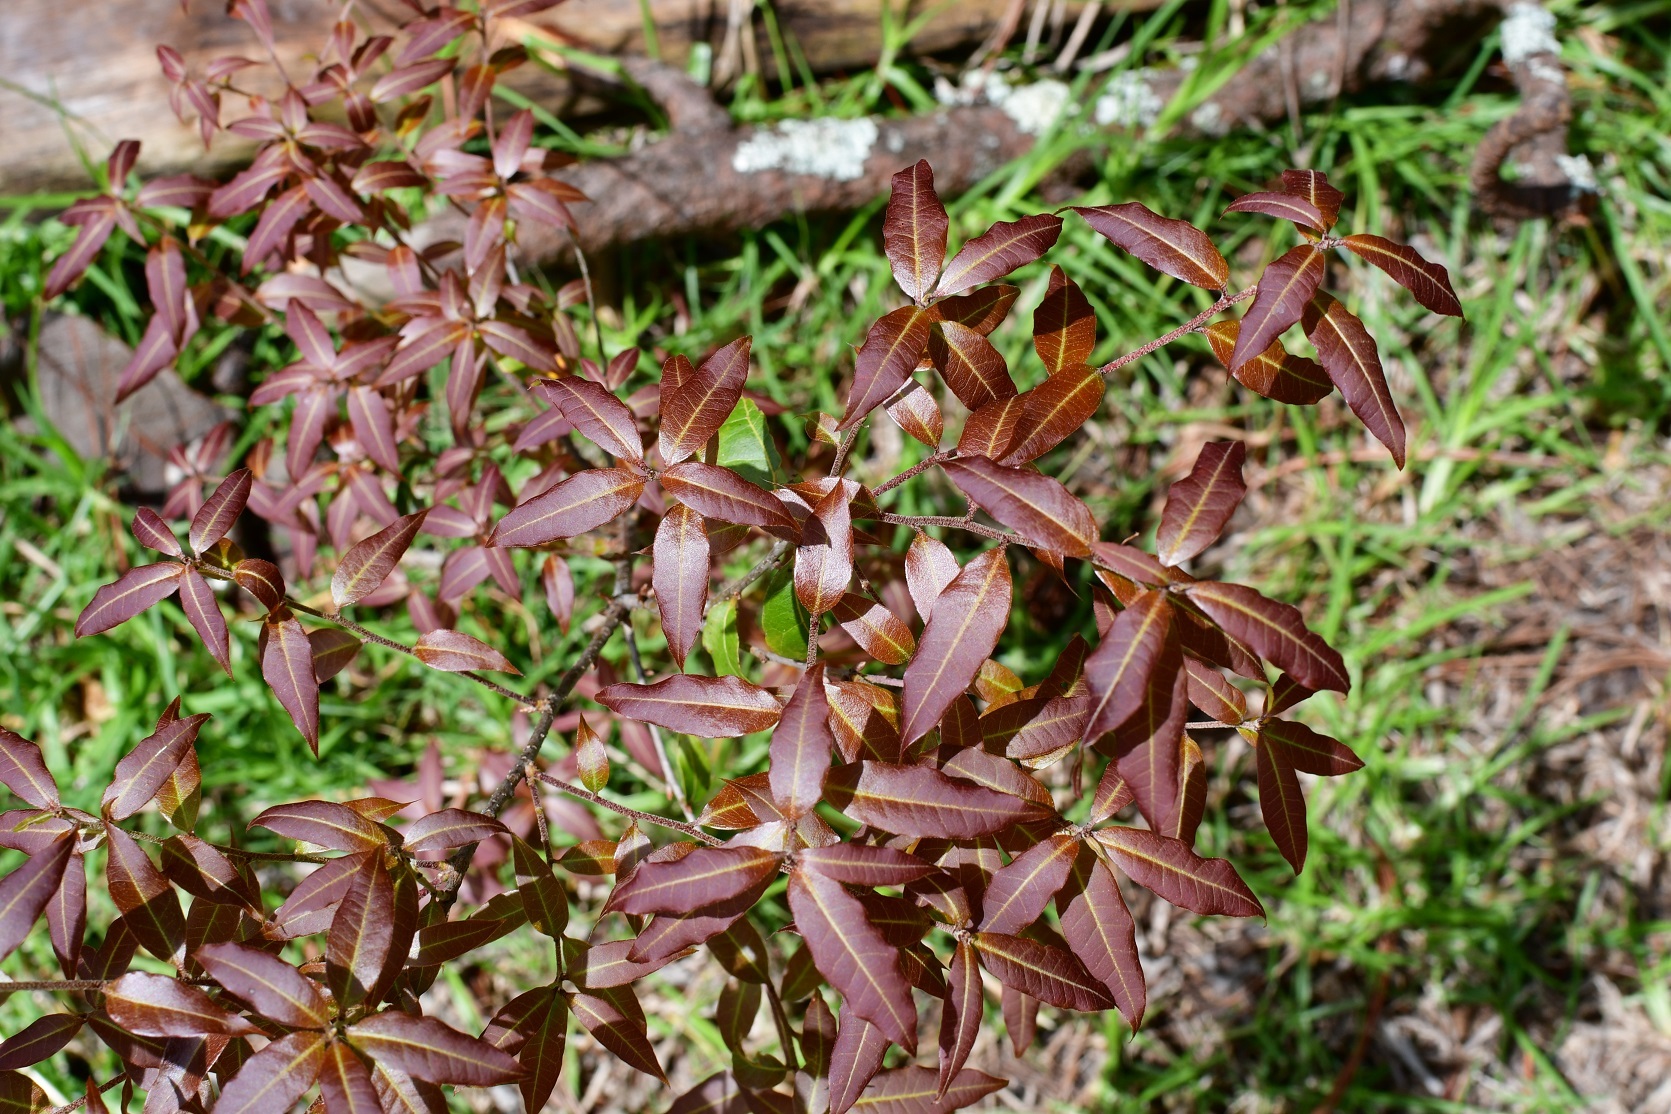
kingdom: Plantae
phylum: Tracheophyta
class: Magnoliopsida
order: Fagales
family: Fagaceae
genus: Quercus
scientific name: Quercus laurina
